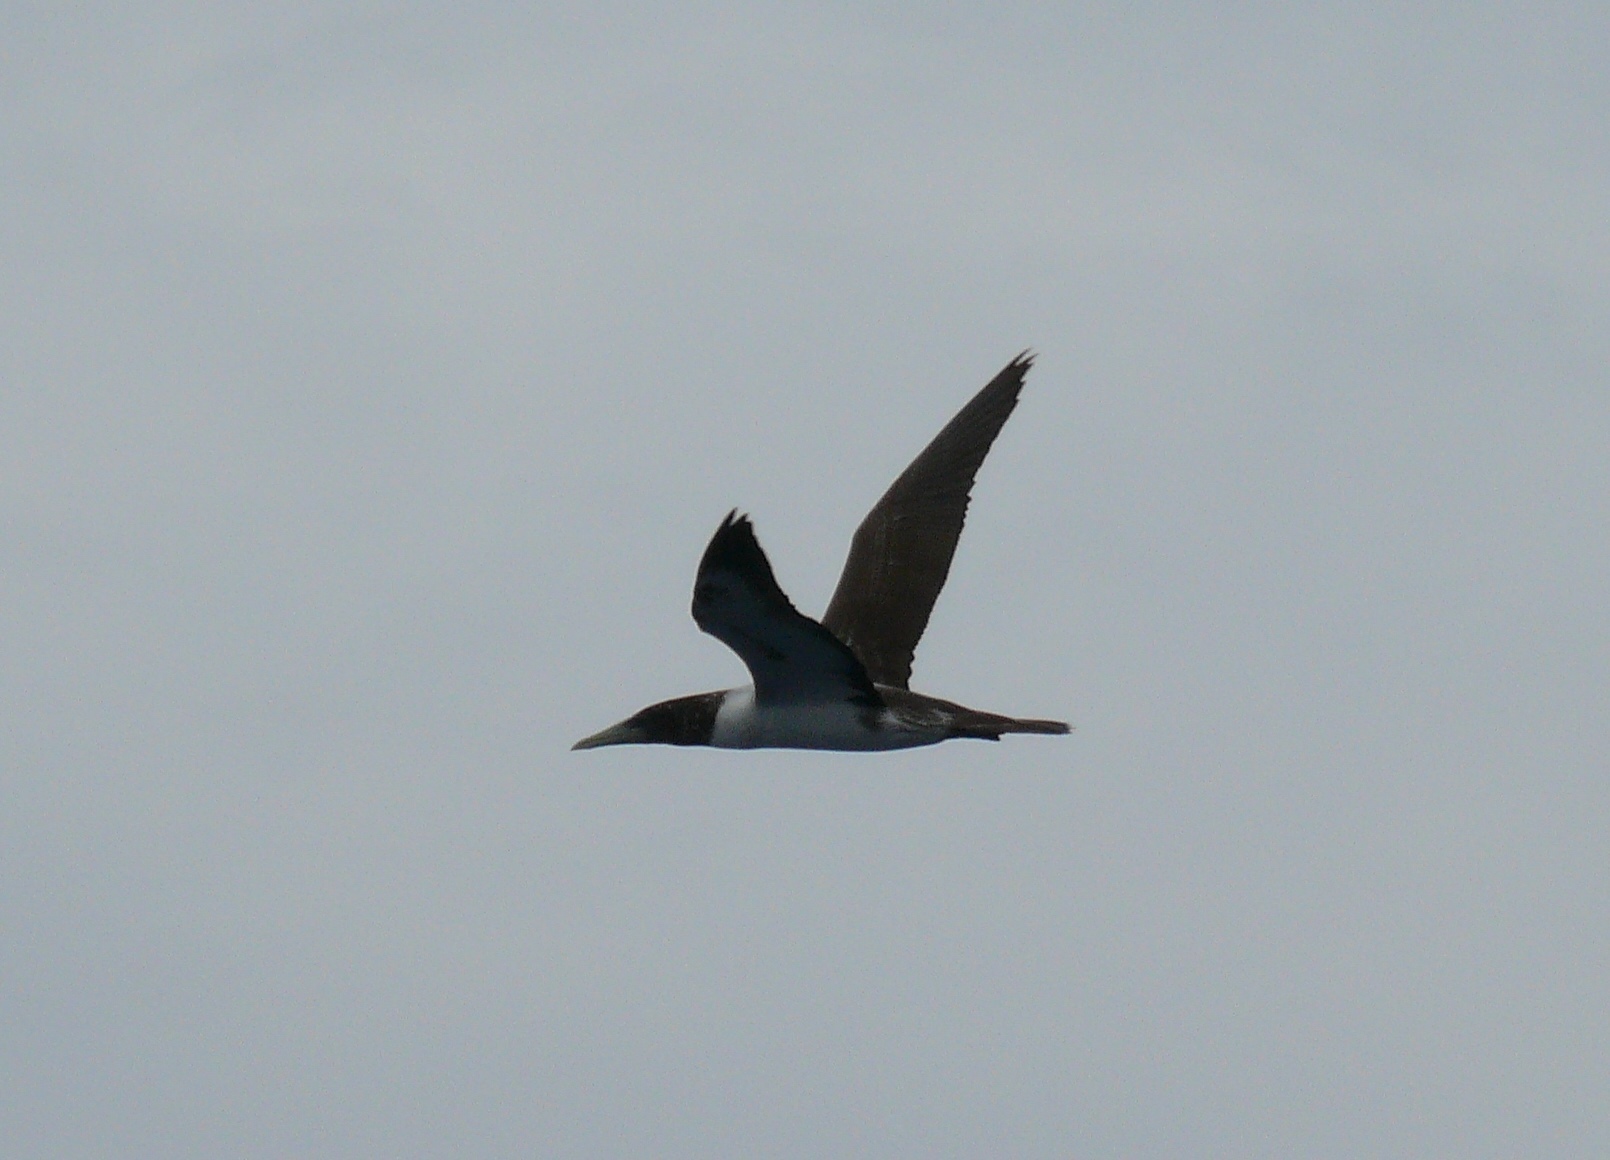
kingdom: Animalia
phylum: Chordata
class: Aves
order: Suliformes
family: Sulidae
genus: Sula
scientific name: Sula dactylatra
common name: Masked booby
